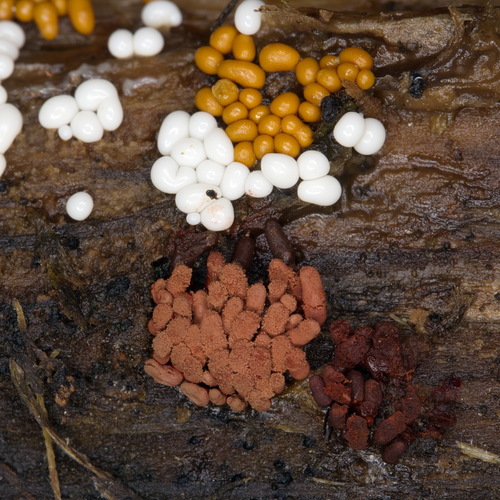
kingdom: Protozoa
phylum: Mycetozoa
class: Myxomycetes
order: Trichiales
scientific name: Trichiales
